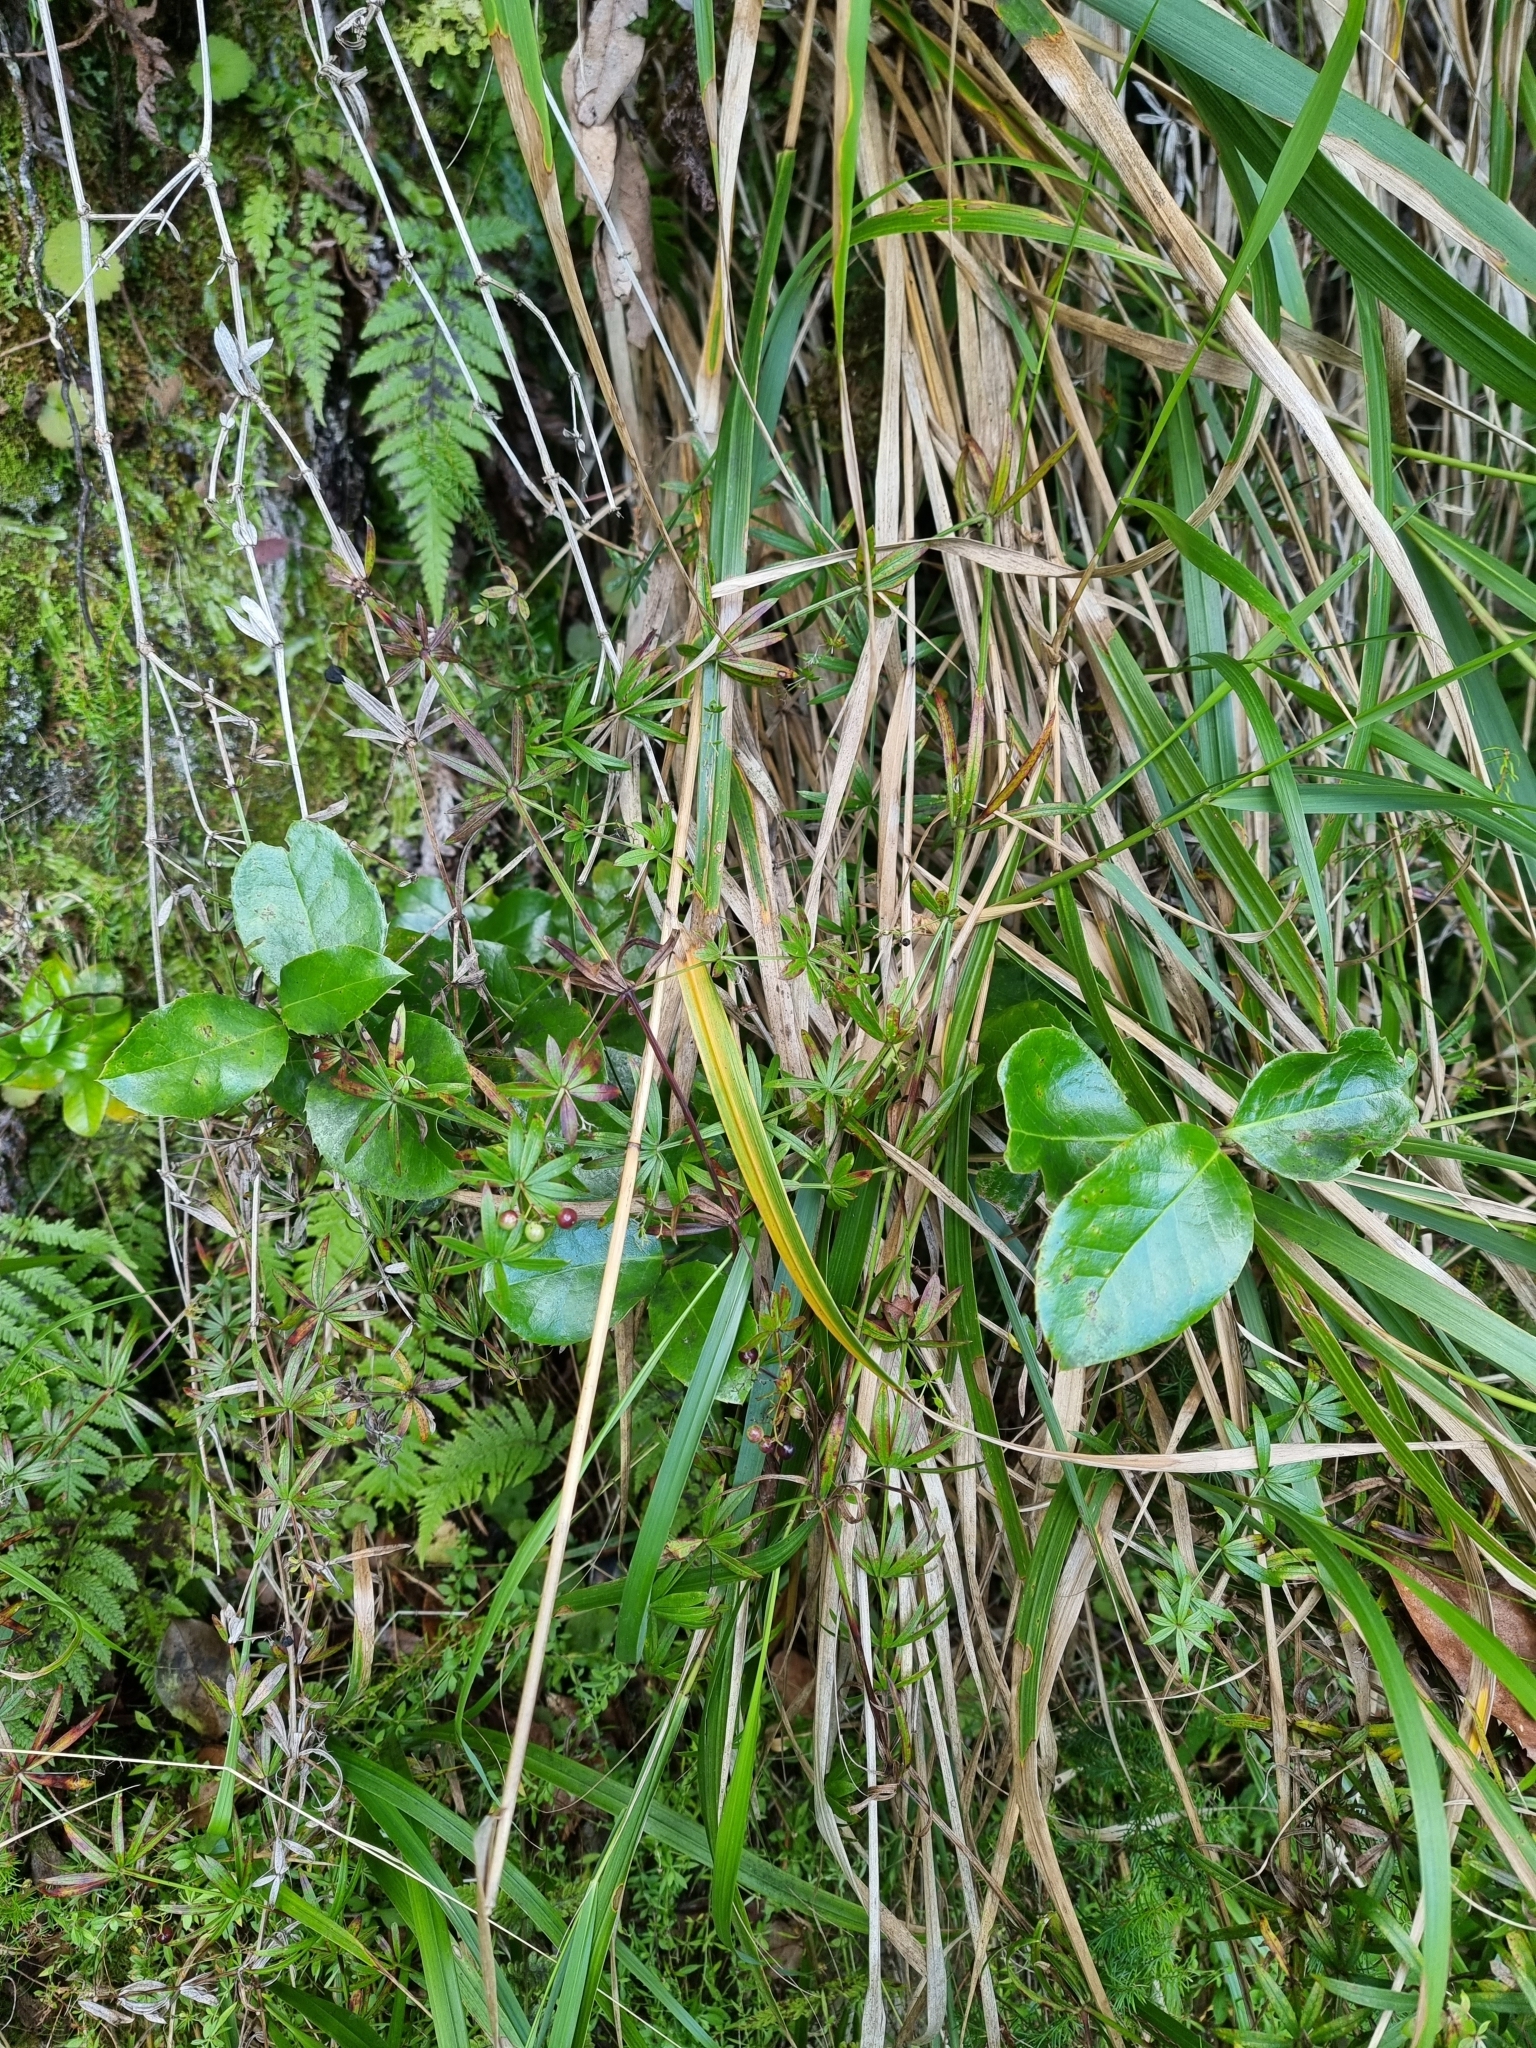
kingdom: Plantae
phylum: Tracheophyta
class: Magnoliopsida
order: Aquifoliales
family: Aquifoliaceae
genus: Ilex
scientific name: Ilex perado
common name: Madeira holly
